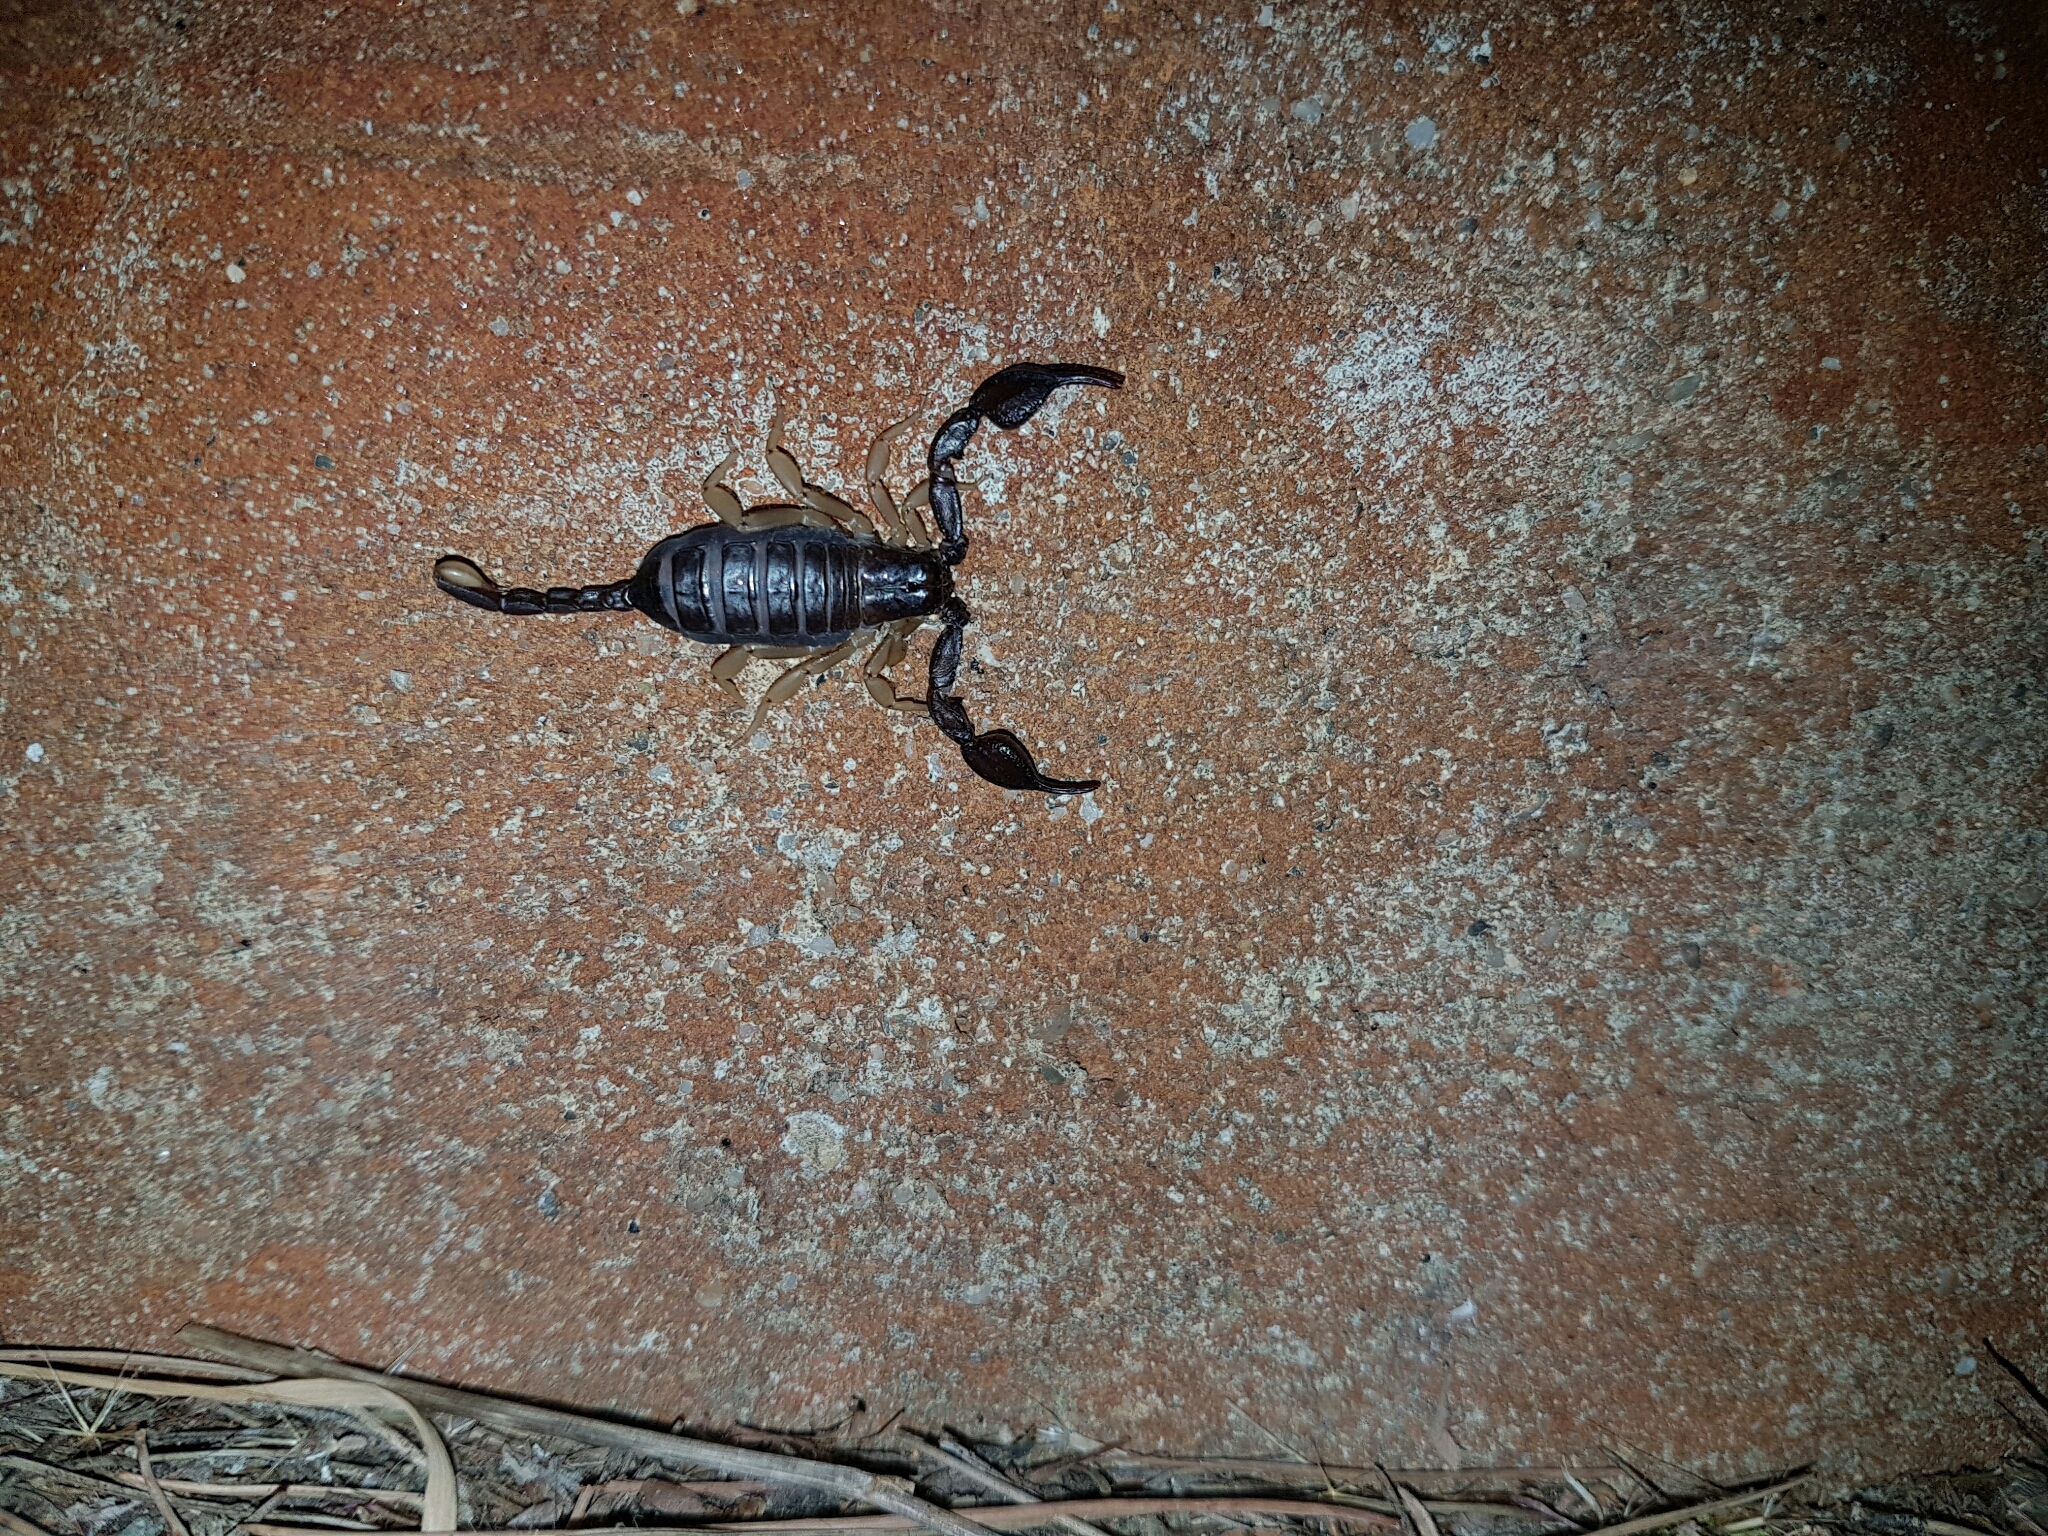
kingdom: Animalia
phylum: Arthropoda
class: Arachnida
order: Scorpiones
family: Euscorpiidae
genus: Euscorpius
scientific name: Euscorpius flavicaudis
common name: European yellow-tailed scorpion
